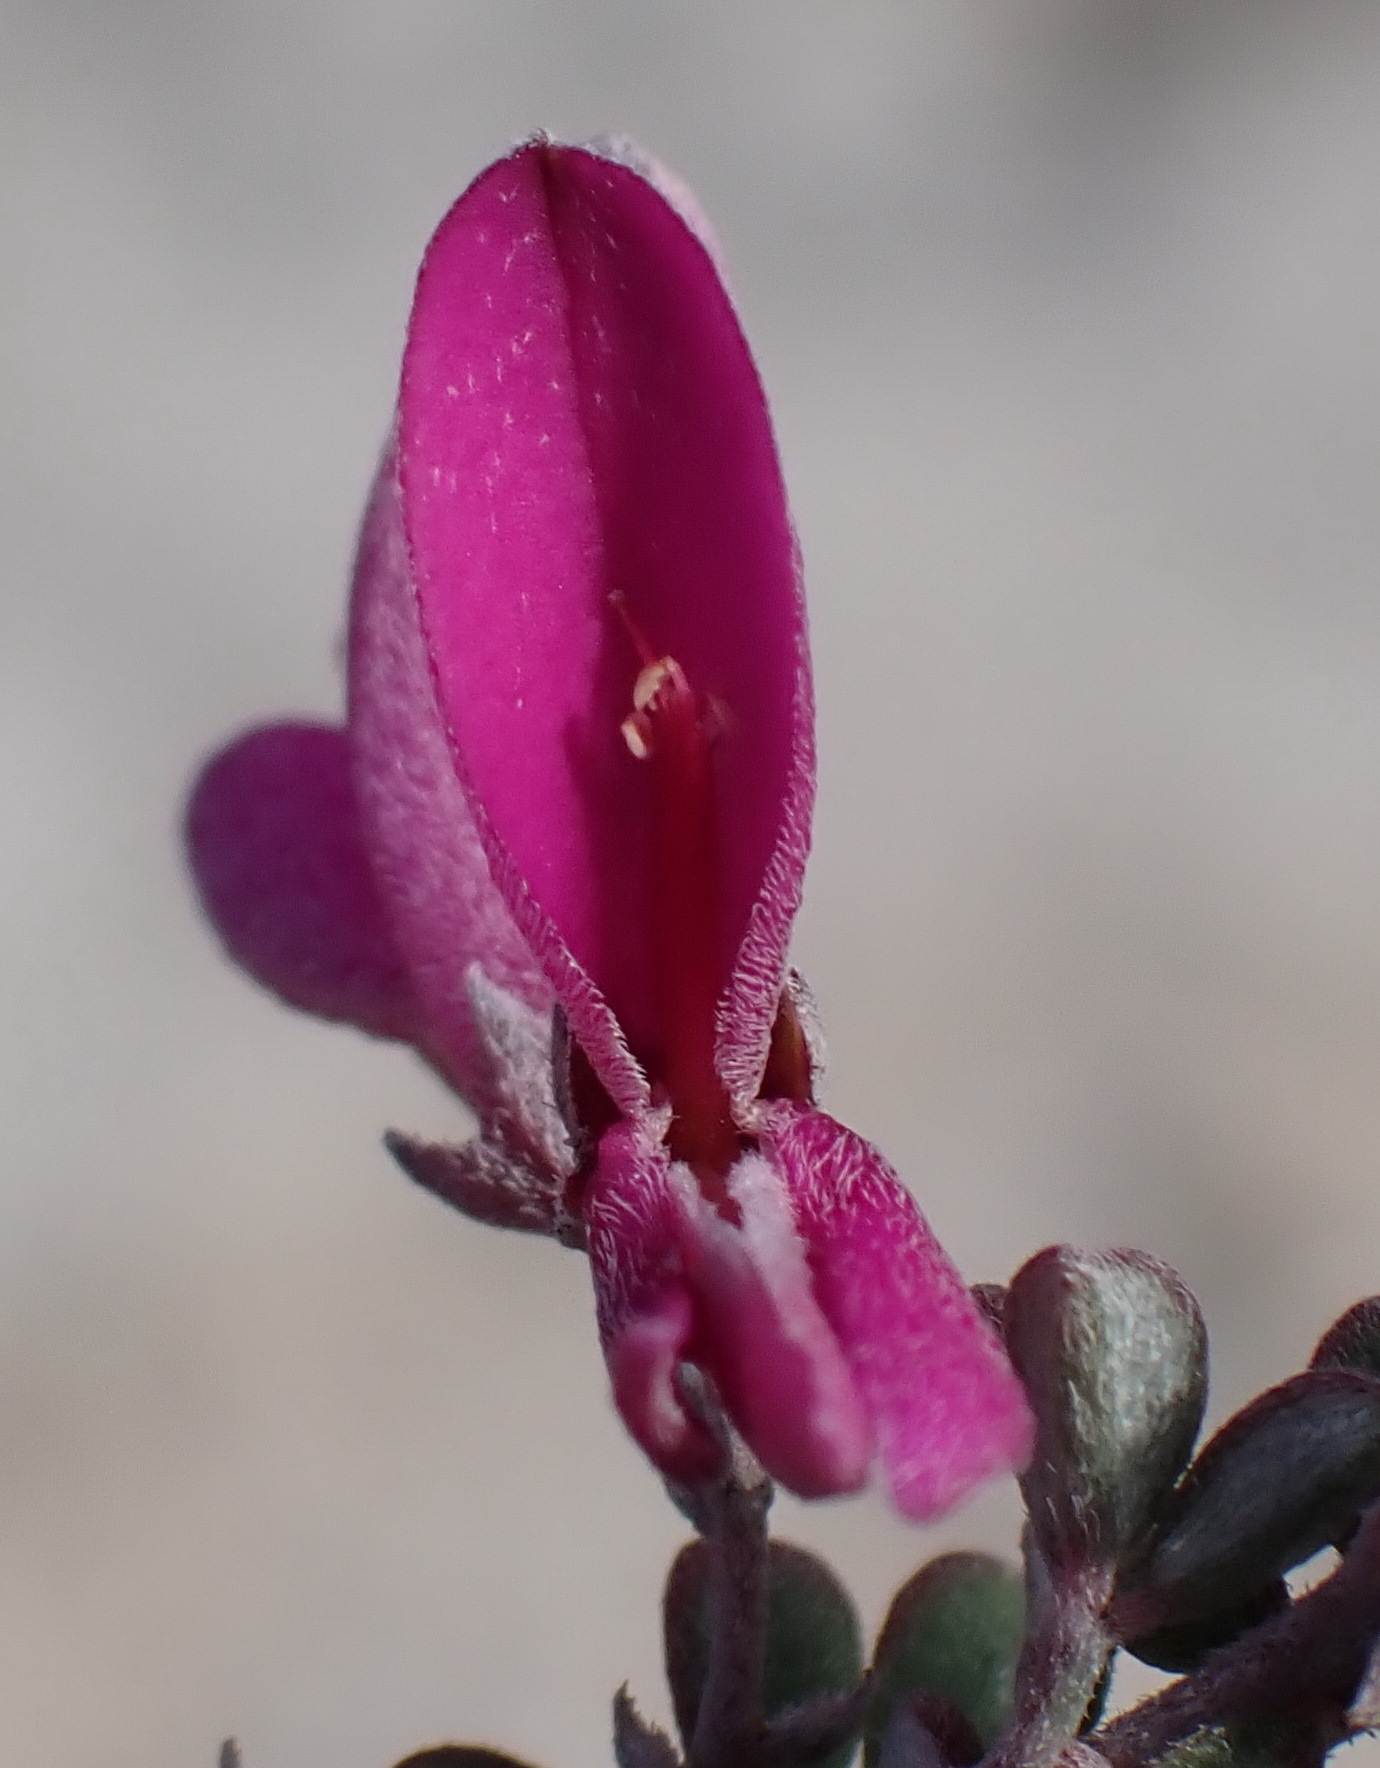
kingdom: Plantae
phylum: Tracheophyta
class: Magnoliopsida
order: Fabales
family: Fabaceae
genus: Indigofera
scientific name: Indigofera
